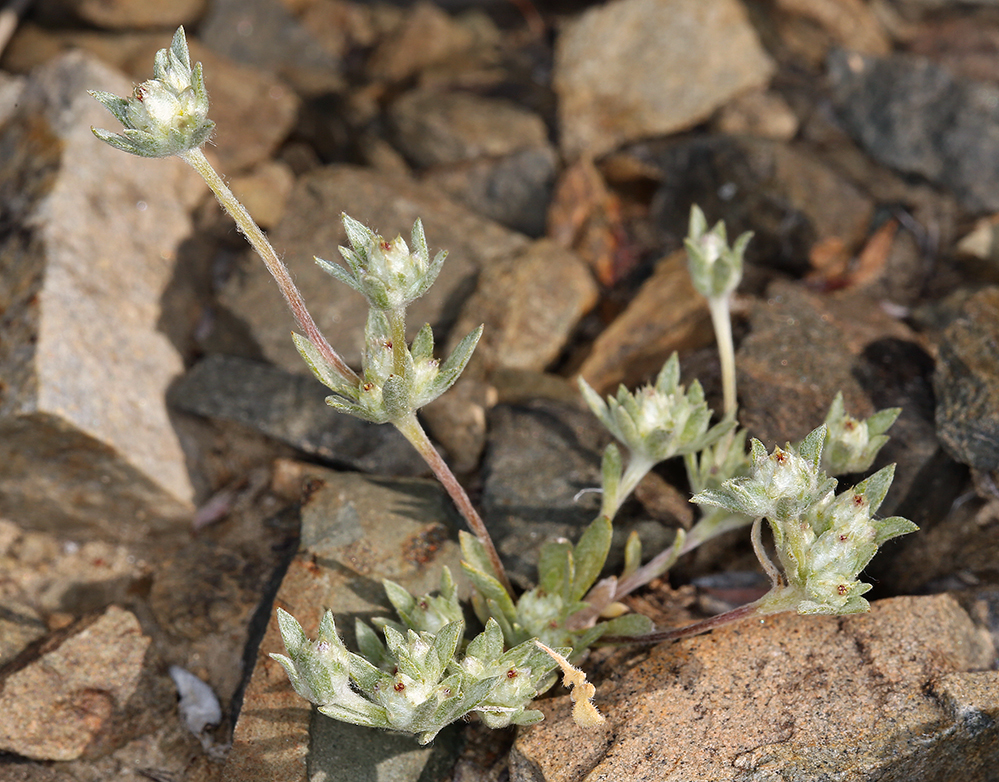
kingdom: Plantae
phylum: Tracheophyta
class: Magnoliopsida
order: Asterales
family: Asteraceae
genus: Stylocline
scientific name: Stylocline psilocarphoides
